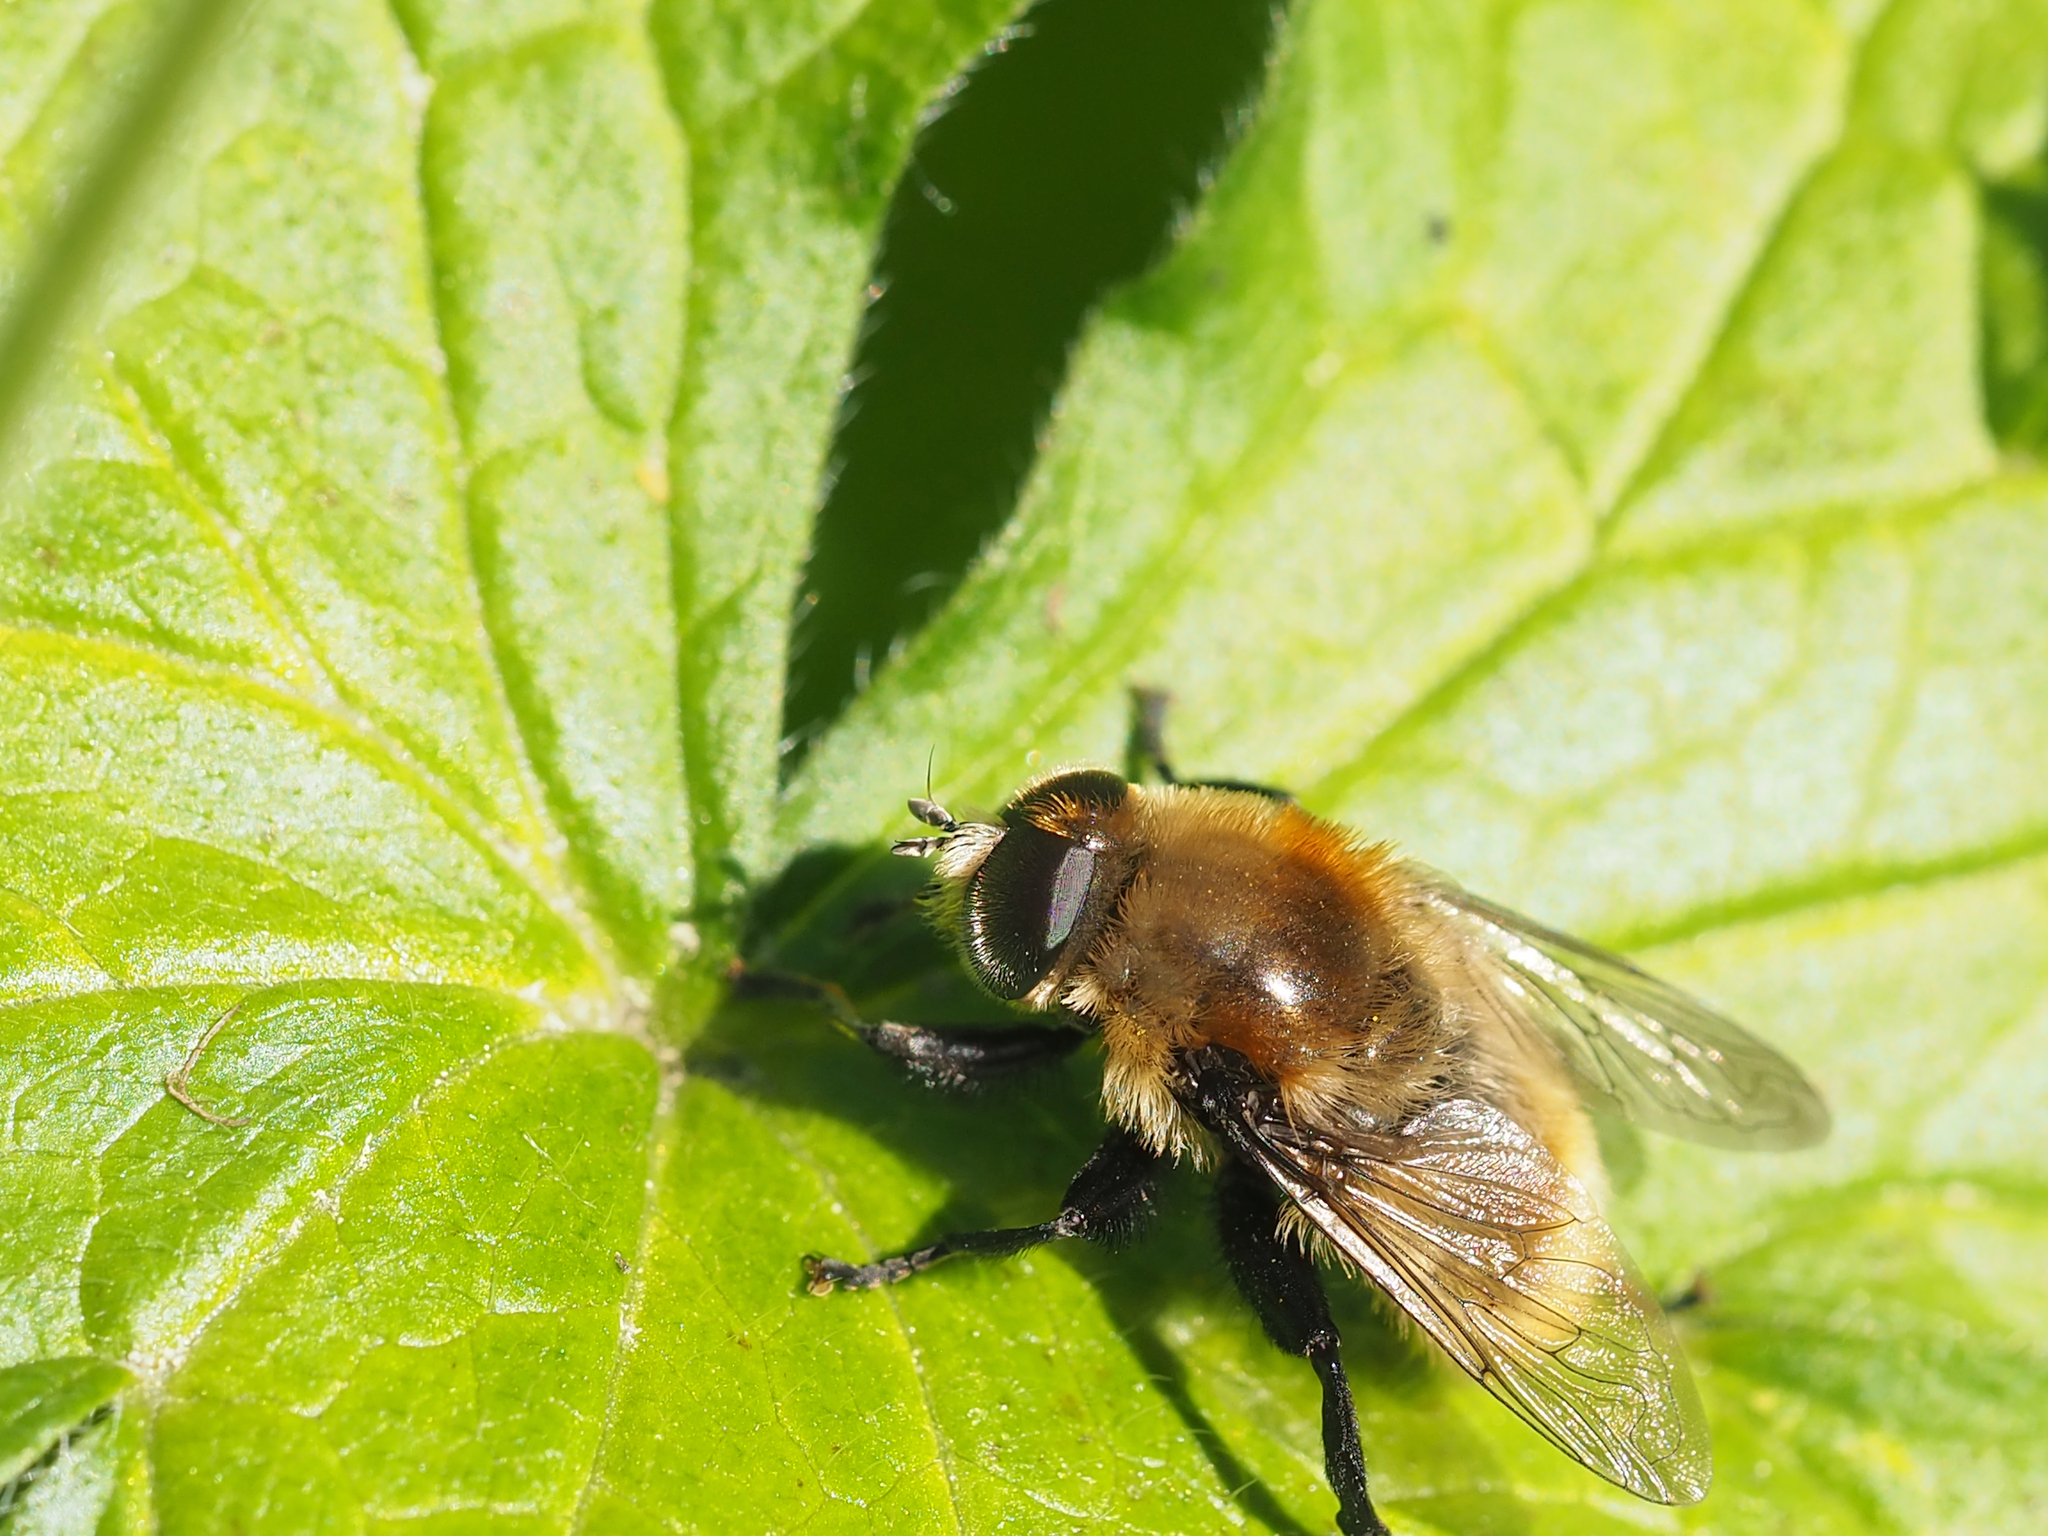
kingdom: Animalia
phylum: Arthropoda
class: Insecta
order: Diptera
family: Syrphidae
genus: Merodon
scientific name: Merodon equestris
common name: Greater bulb-fly
